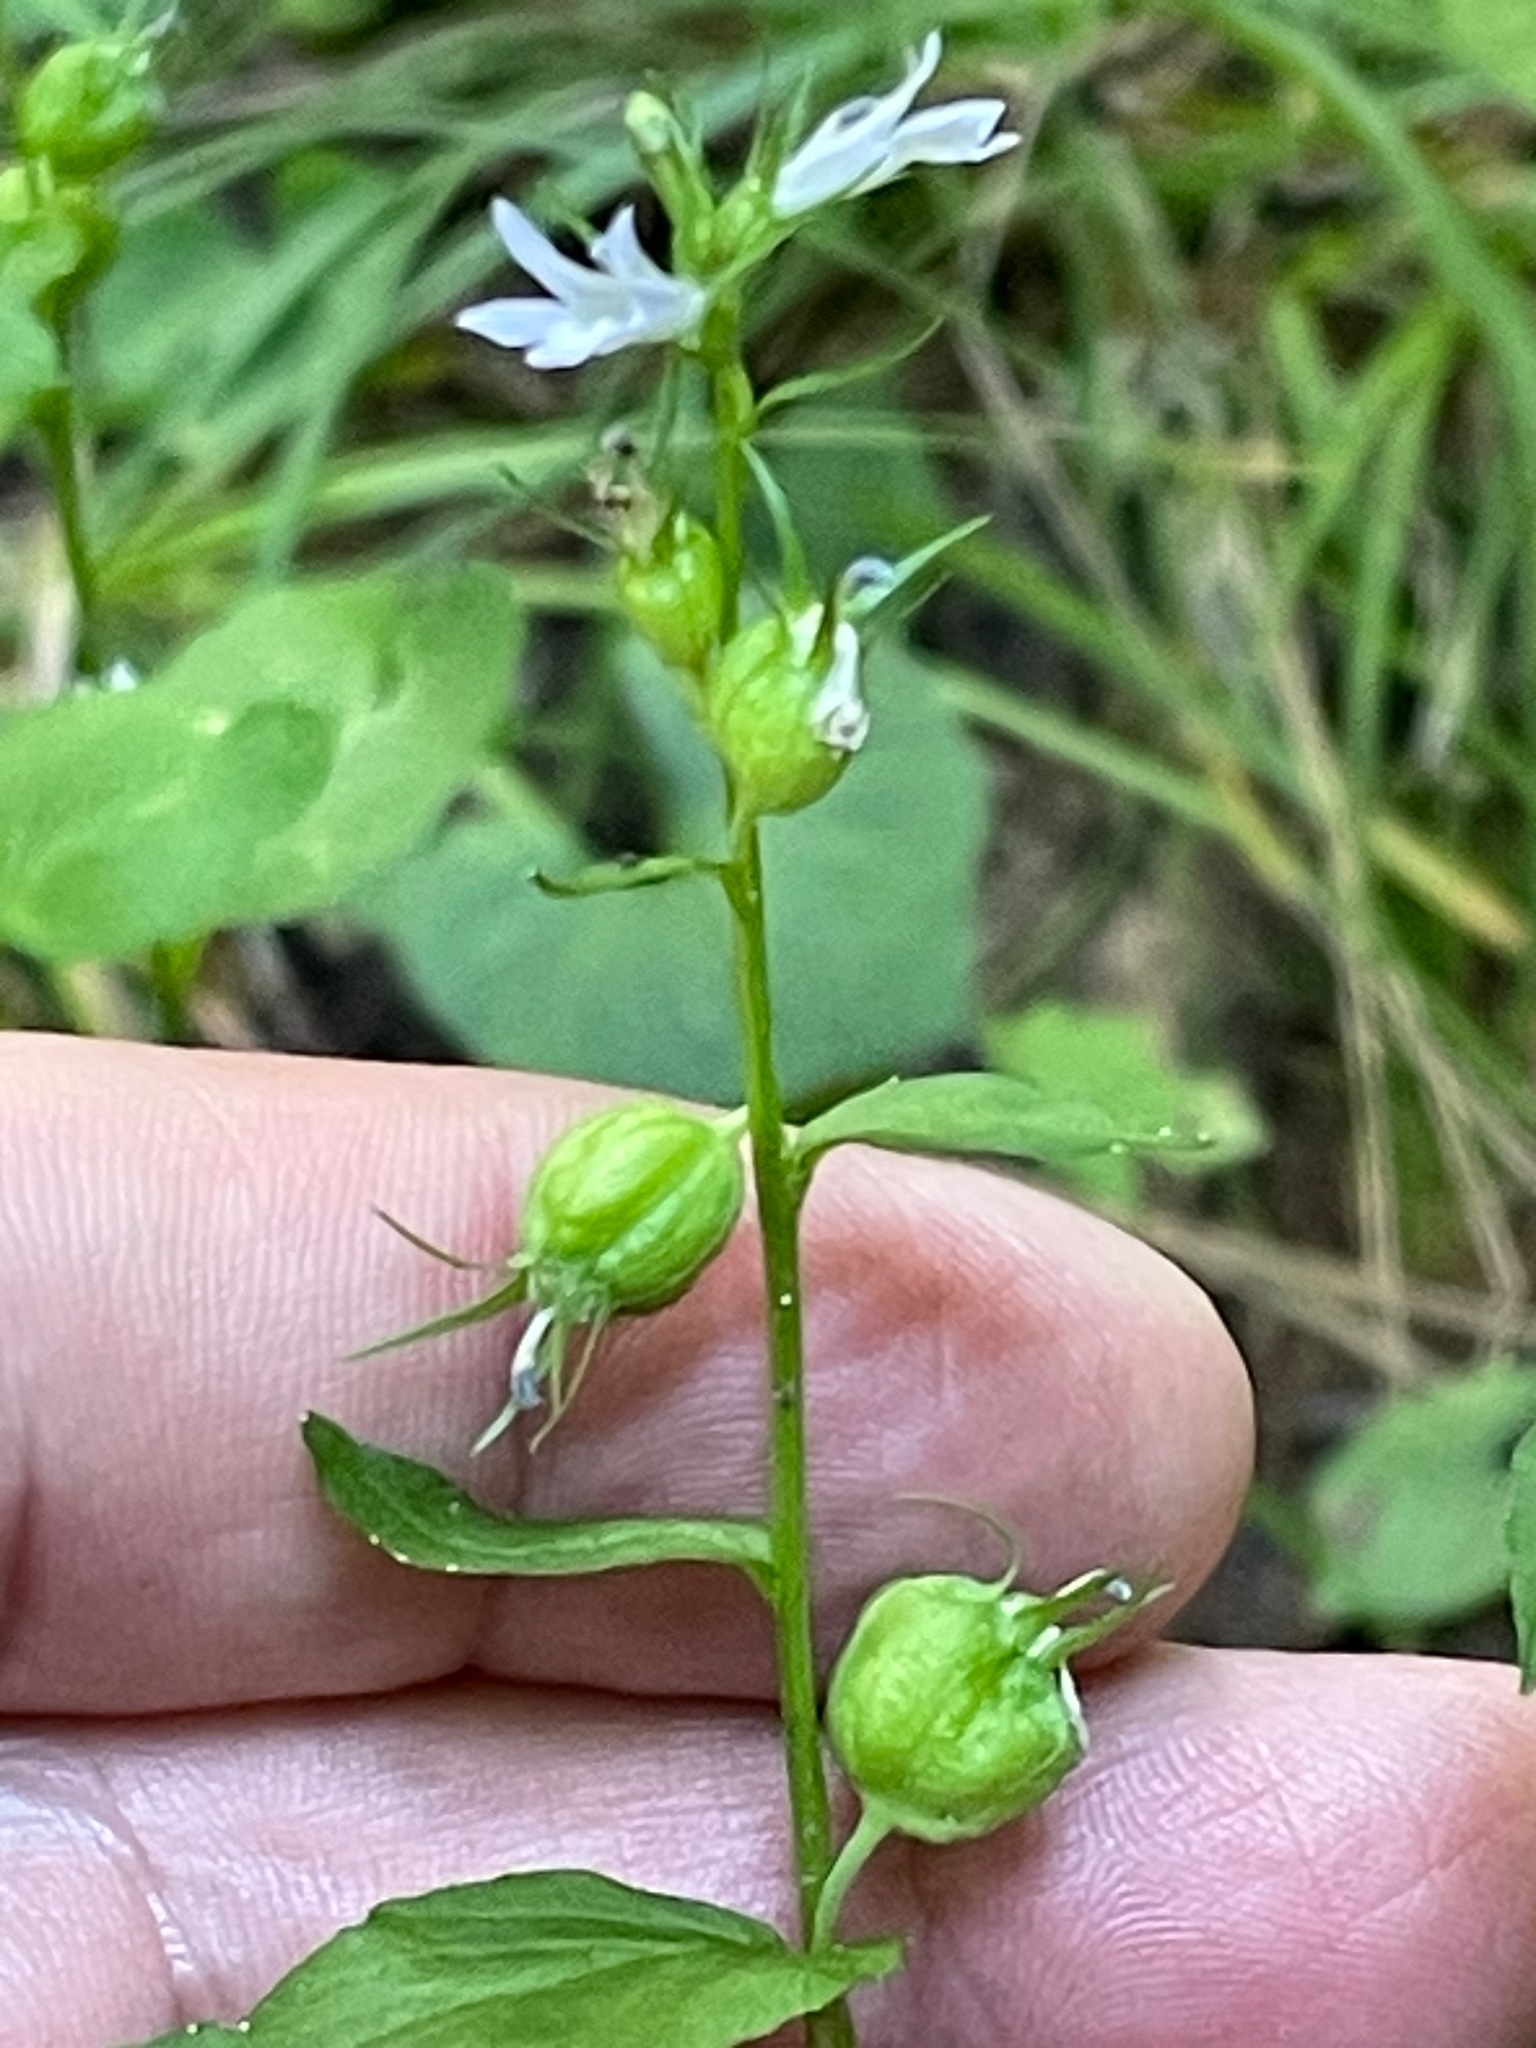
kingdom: Plantae
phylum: Tracheophyta
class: Magnoliopsida
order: Asterales
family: Campanulaceae
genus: Lobelia
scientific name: Lobelia inflata
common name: Indian tobacco
